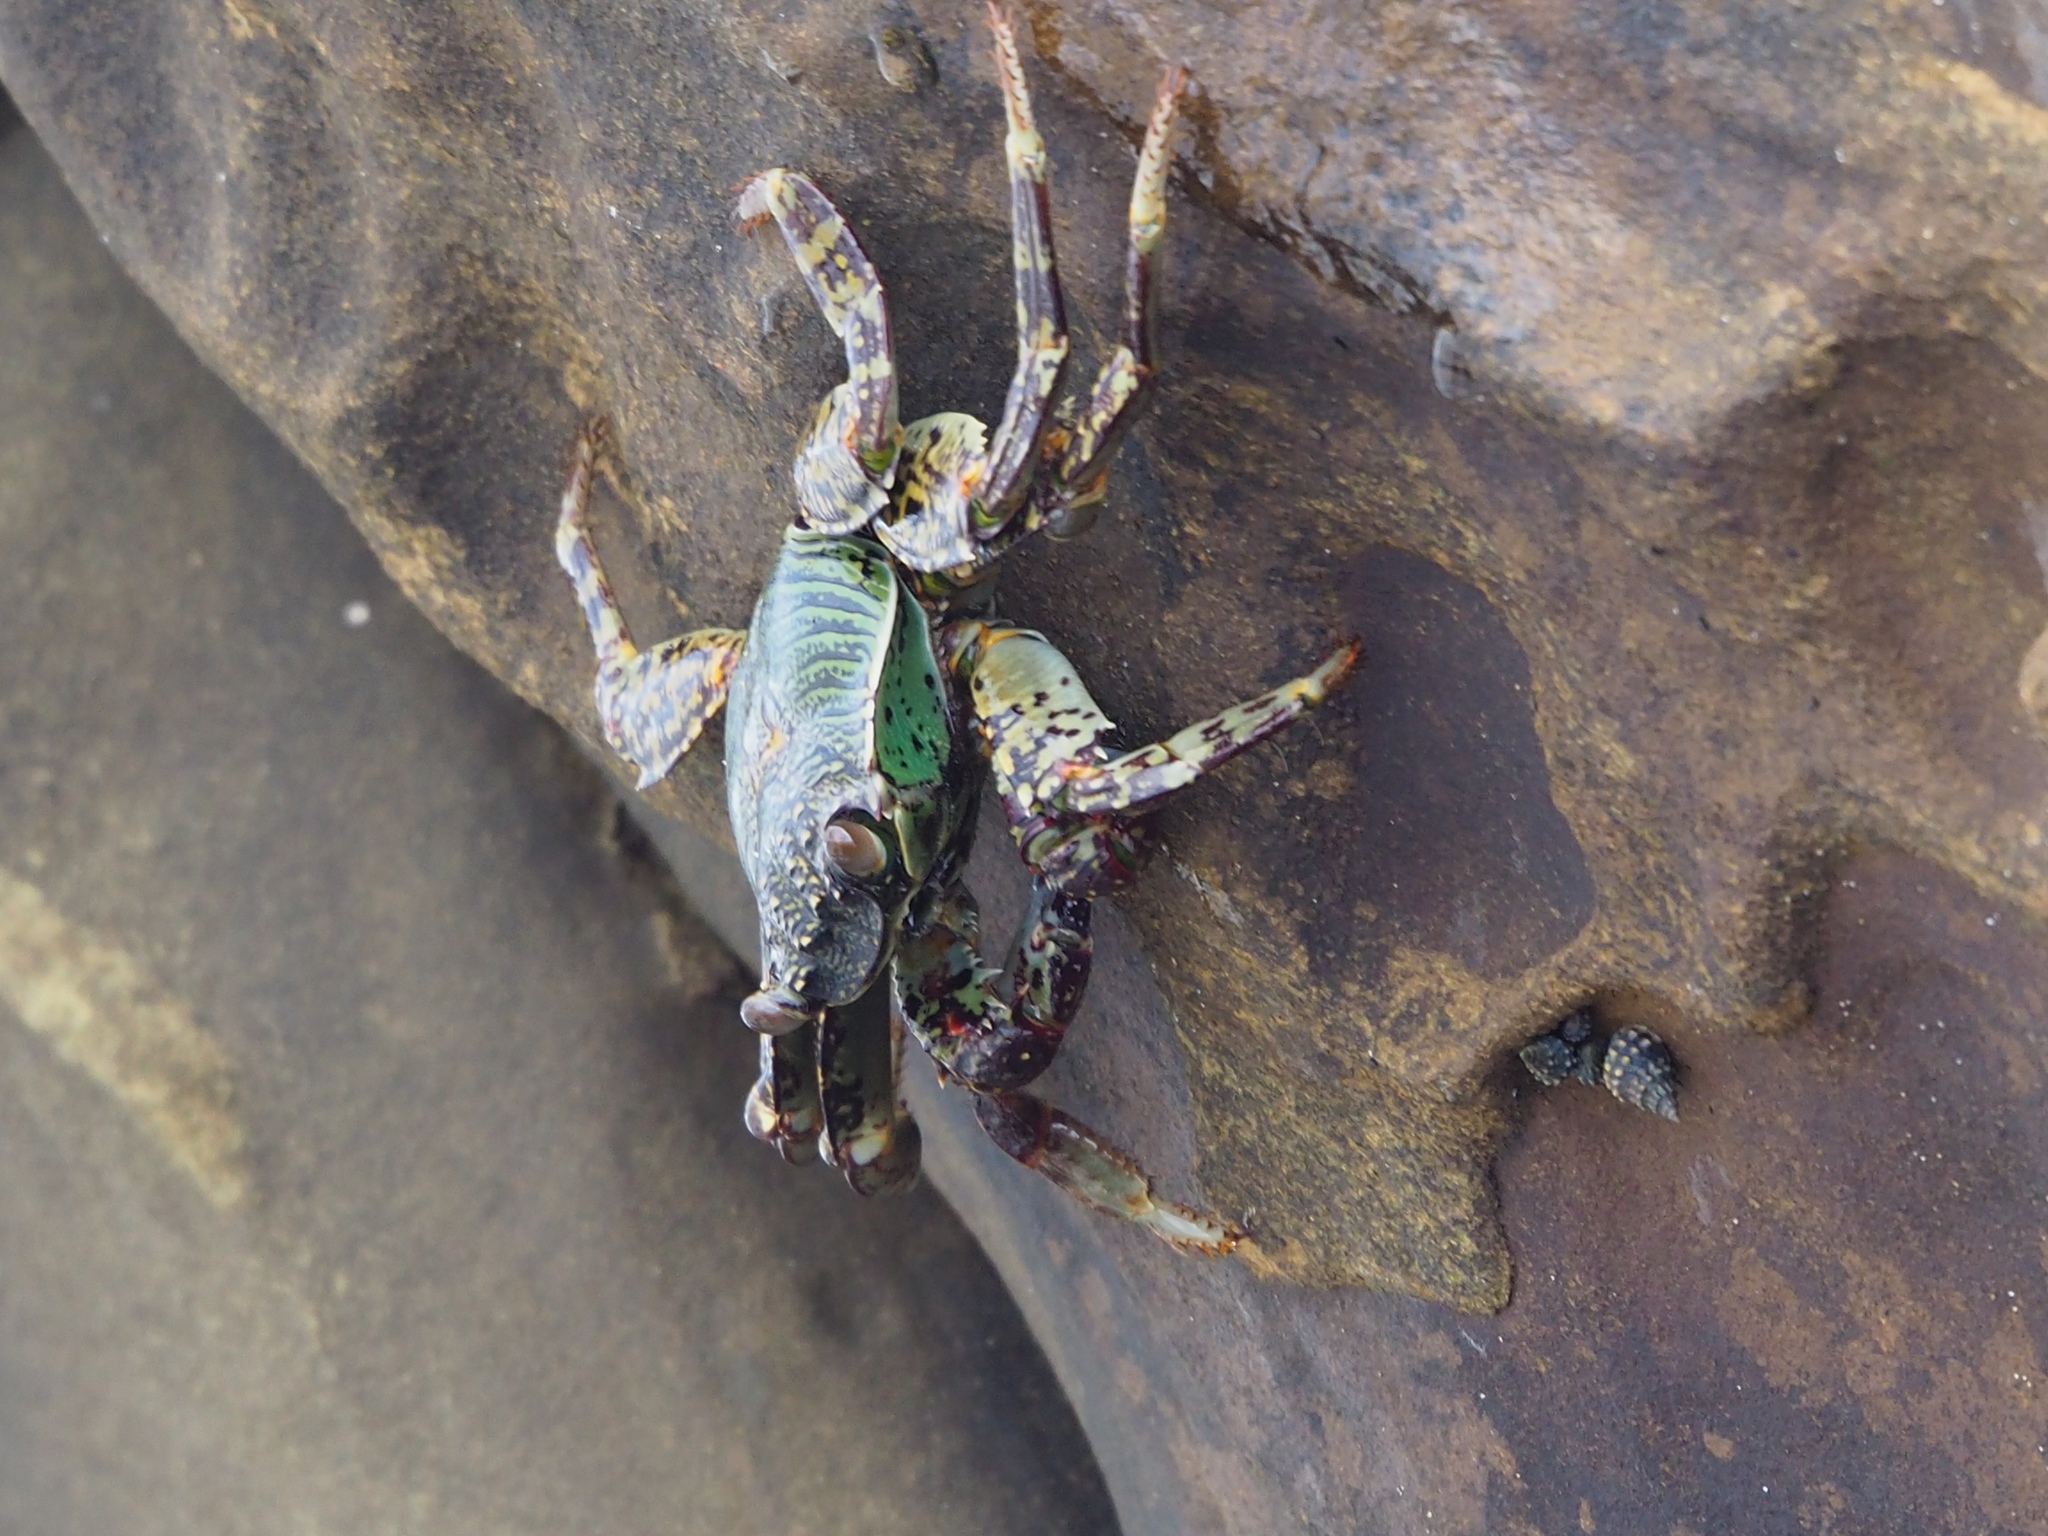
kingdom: Animalia
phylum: Arthropoda
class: Malacostraca
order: Decapoda
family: Grapsidae
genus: Grapsus
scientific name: Grapsus albolineatus
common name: Mottled lightfoot crab
